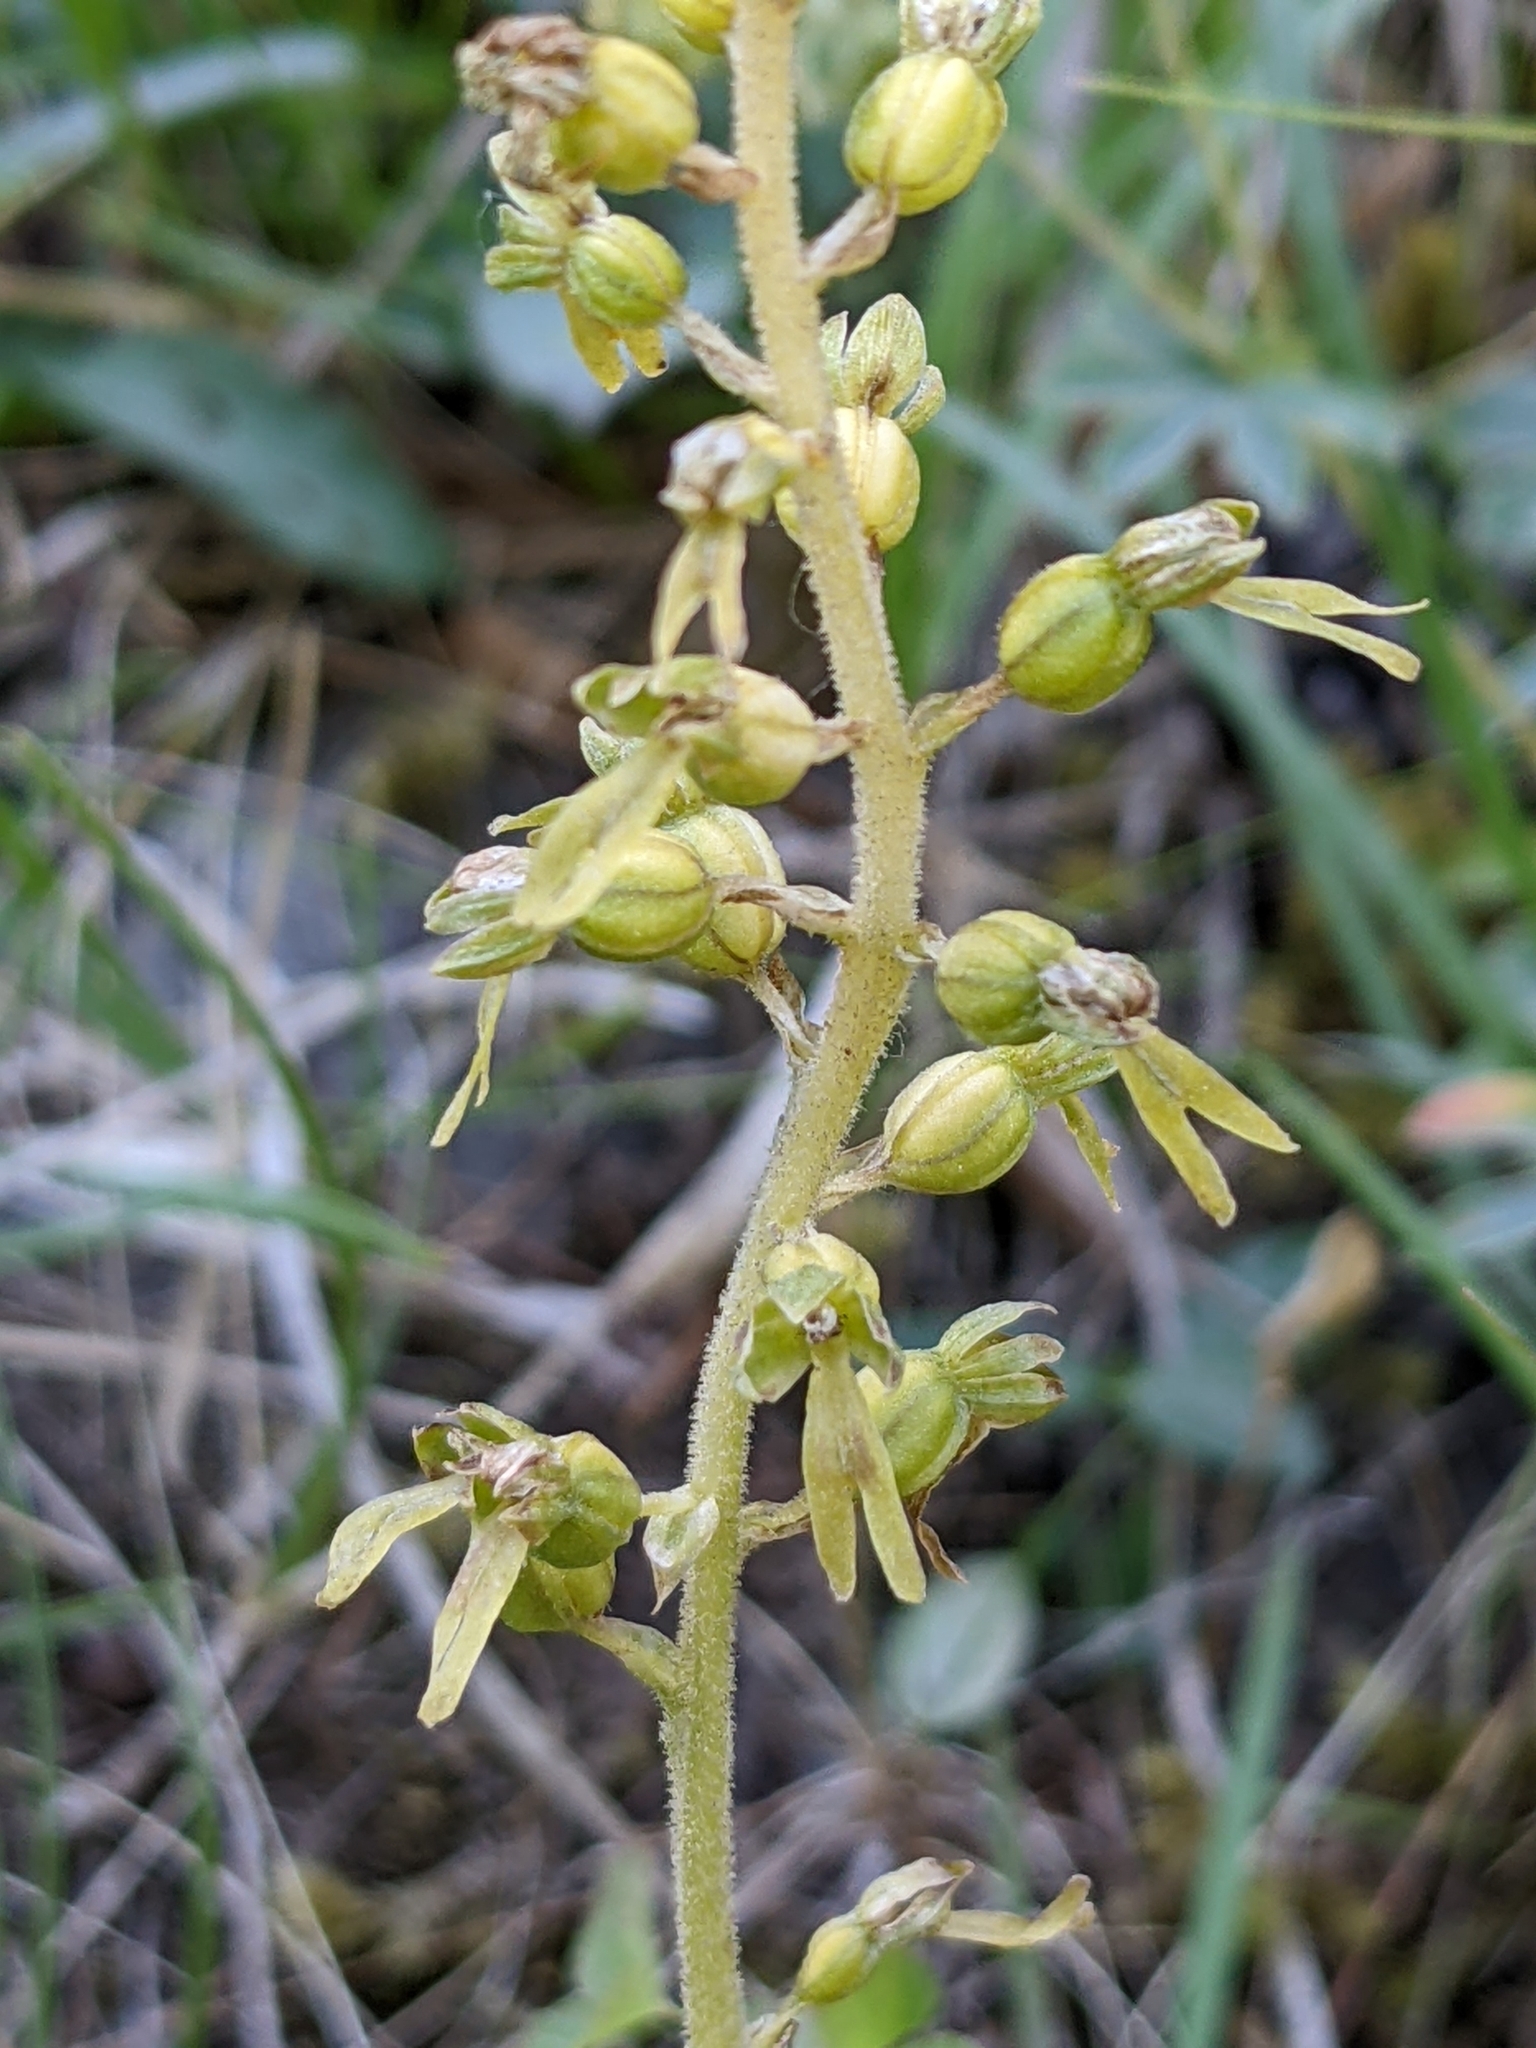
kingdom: Plantae
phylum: Tracheophyta
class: Liliopsida
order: Asparagales
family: Orchidaceae
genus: Neottia
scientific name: Neottia ovata
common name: Common twayblade
